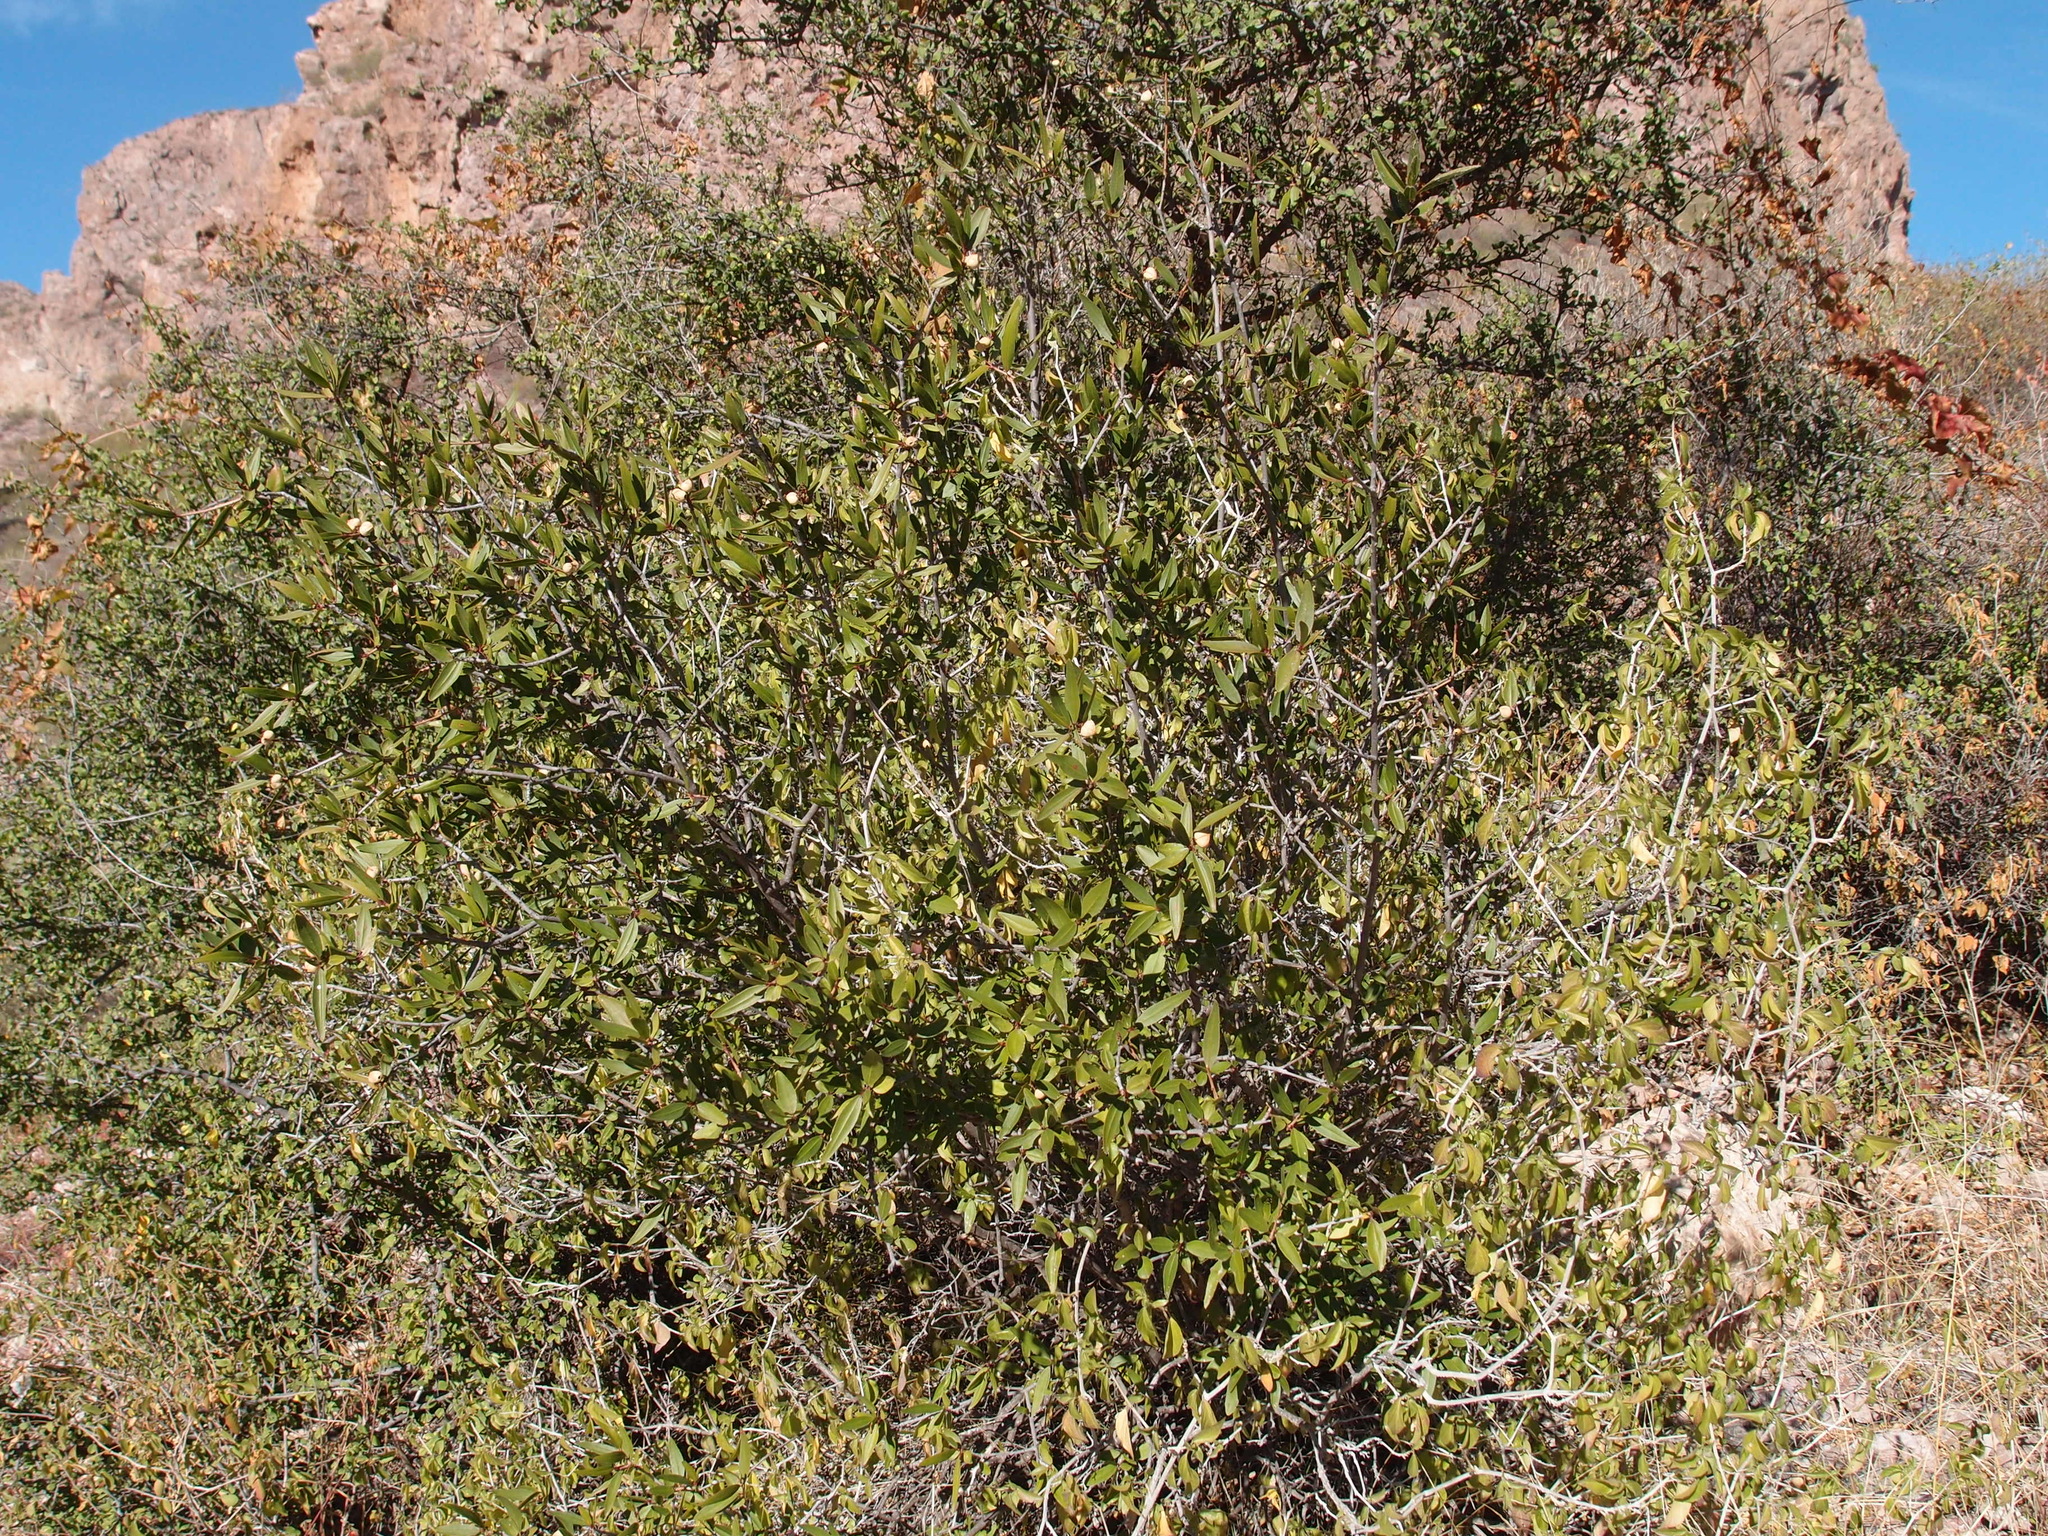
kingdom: Plantae
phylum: Tracheophyta
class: Magnoliopsida
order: Malpighiales
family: Euphorbiaceae
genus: Pleradenophora
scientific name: Pleradenophora bilocularis
